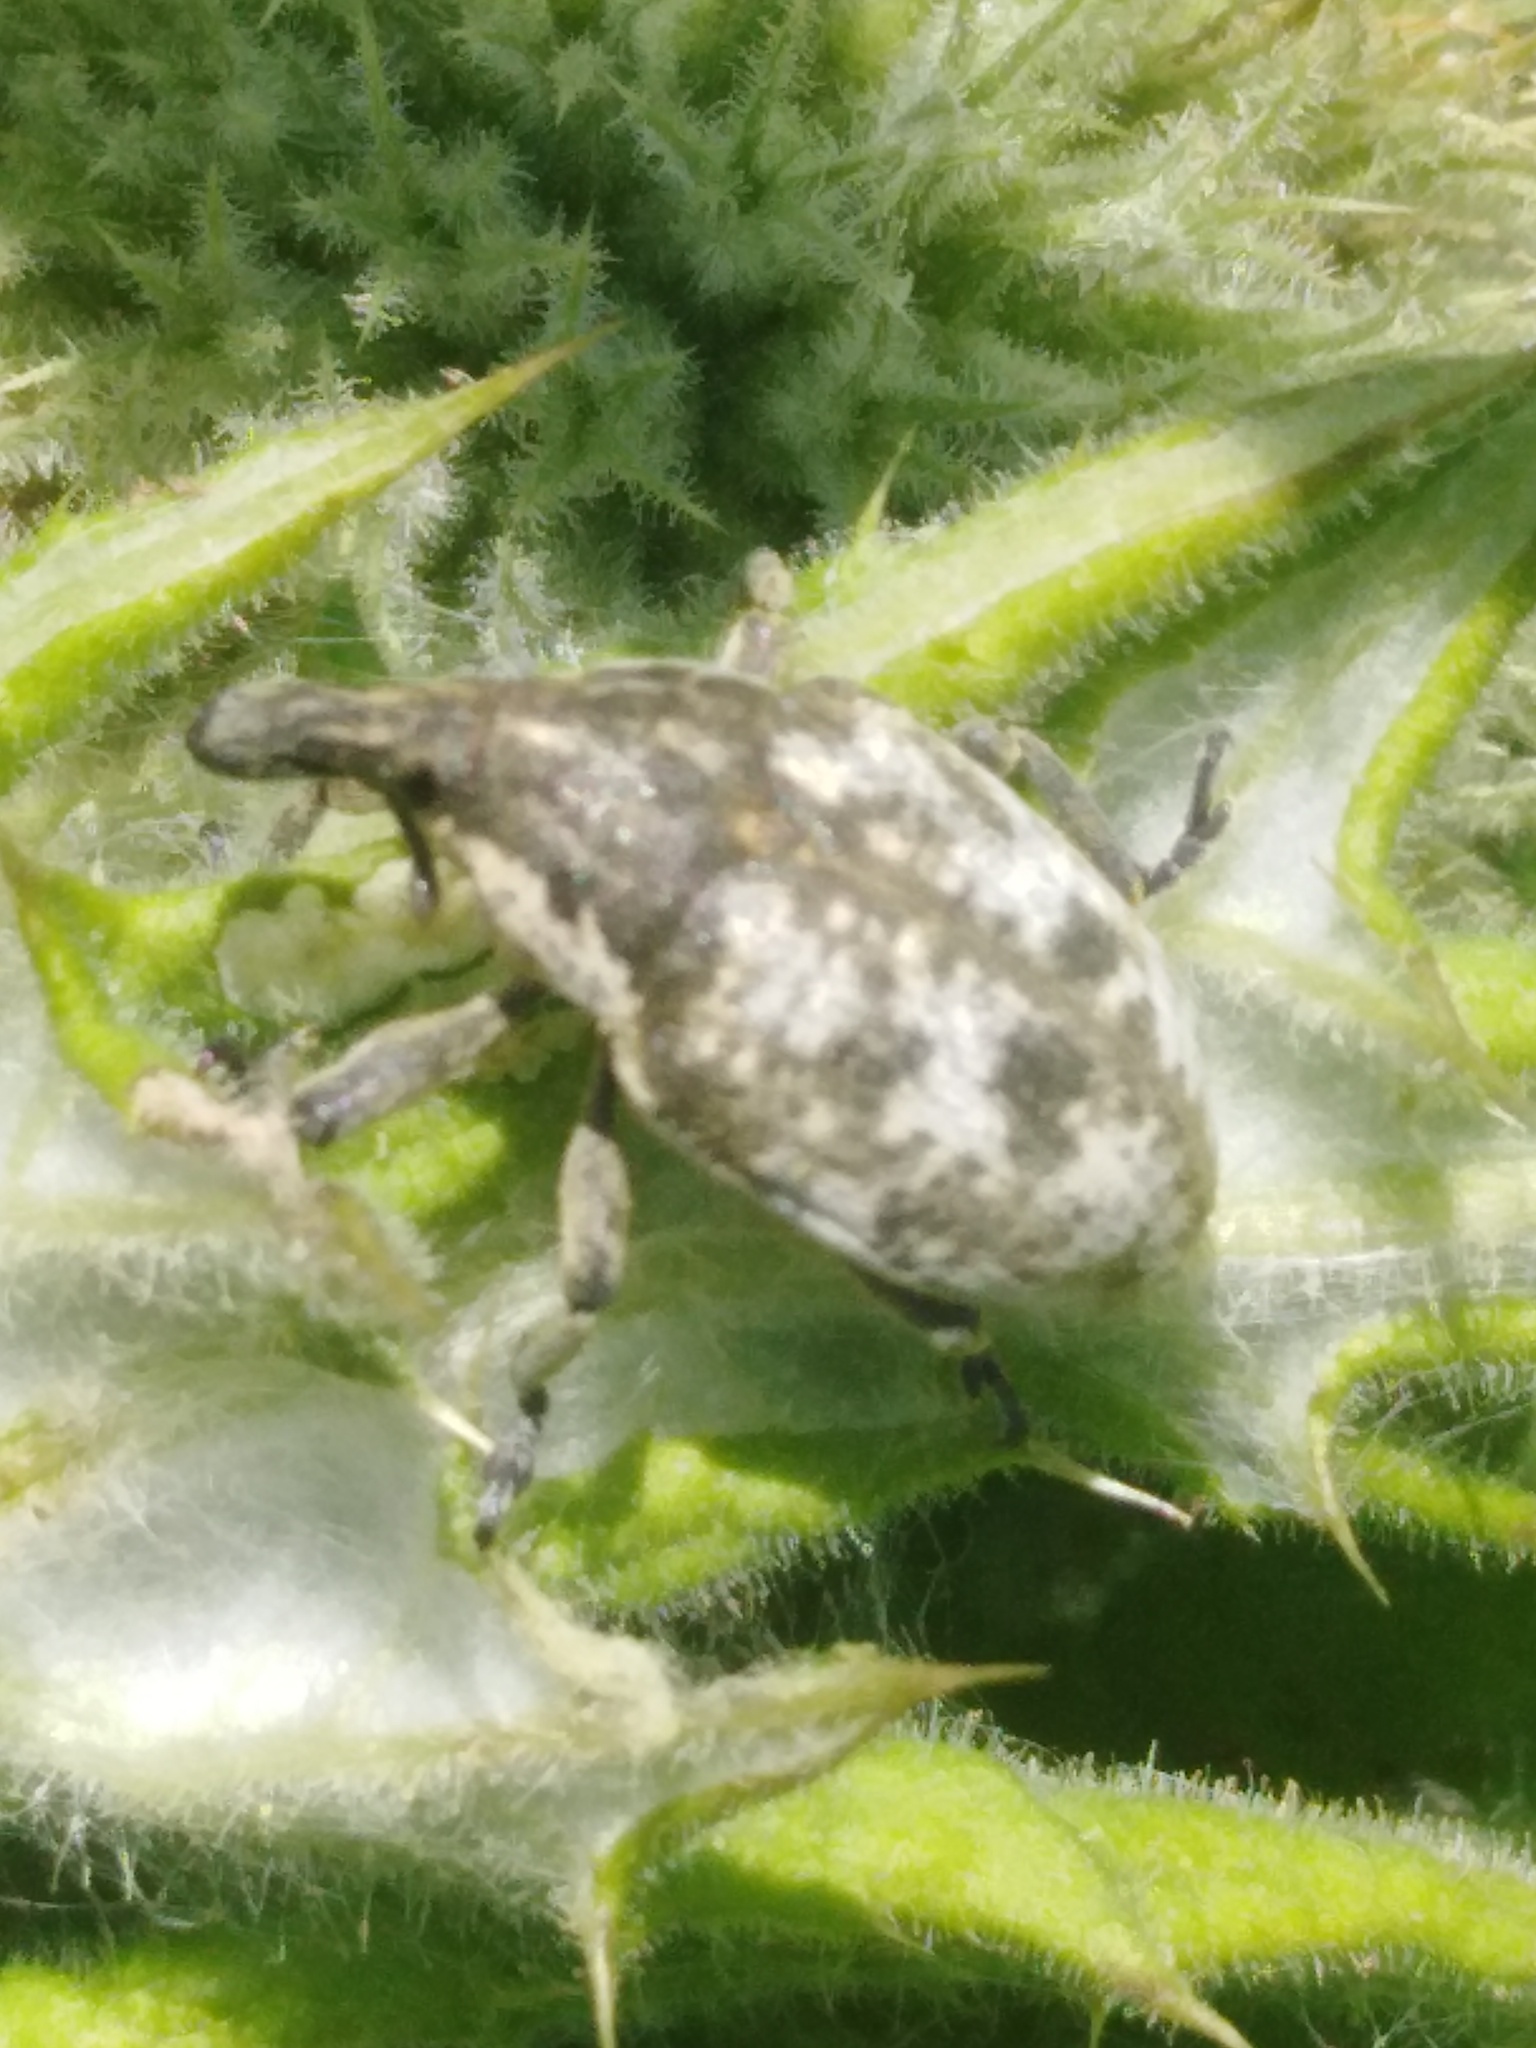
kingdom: Animalia
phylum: Arthropoda
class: Insecta
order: Coleoptera
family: Curculionidae
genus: Larinus
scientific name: Larinus vulpes
